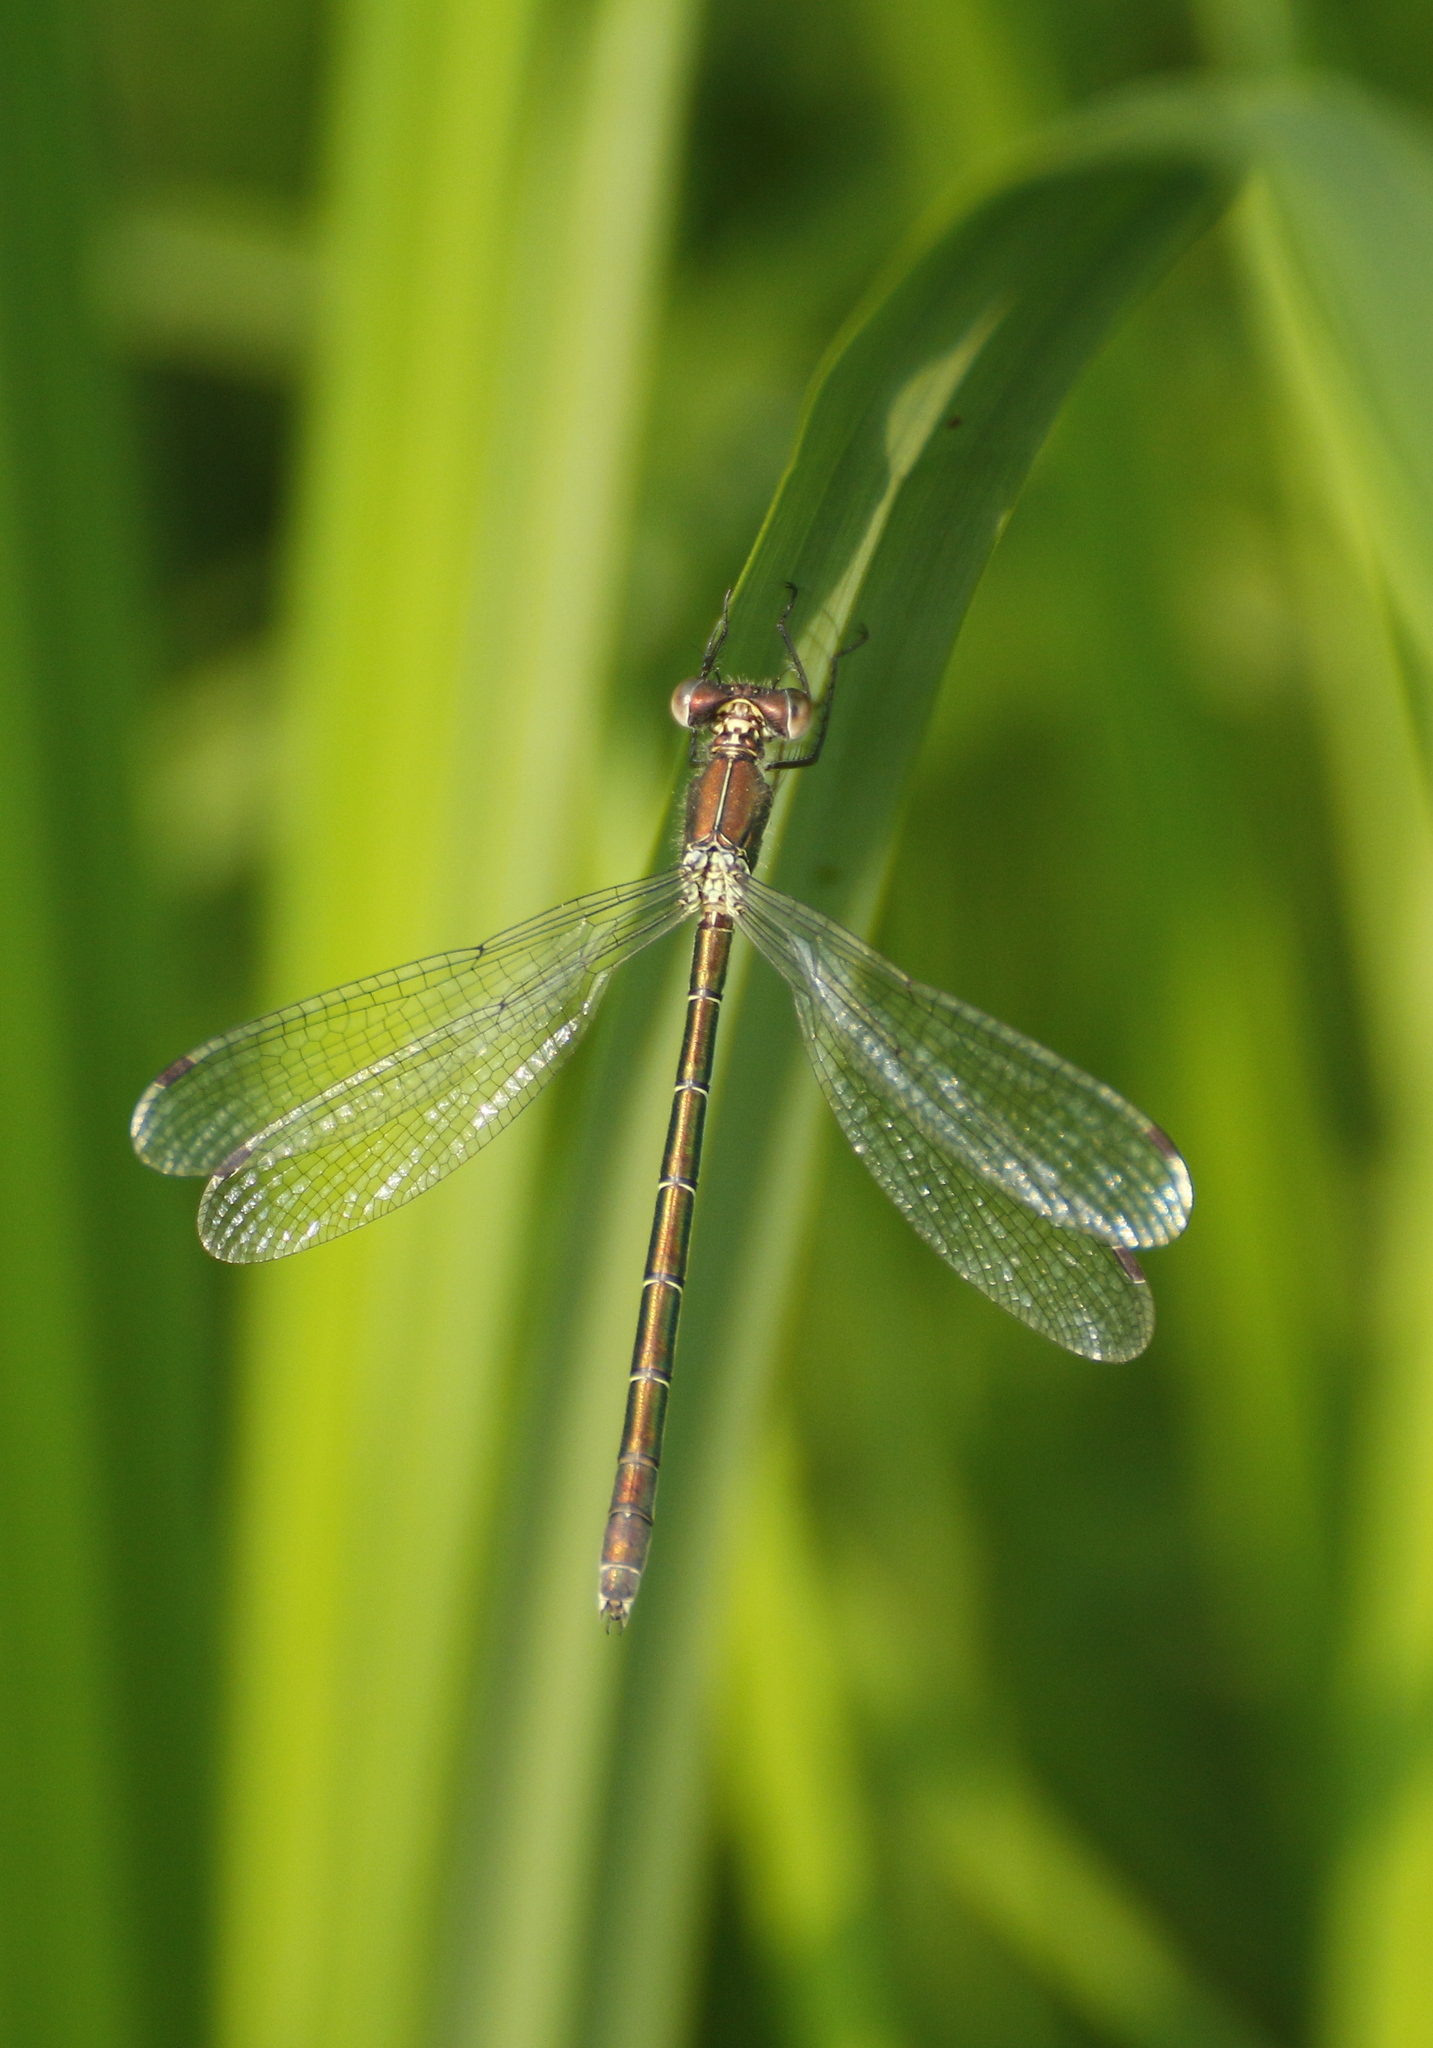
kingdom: Animalia
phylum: Arthropoda
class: Insecta
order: Odonata
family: Lestidae
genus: Lestes
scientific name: Lestes dryas
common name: Scarce emerald damselfly
